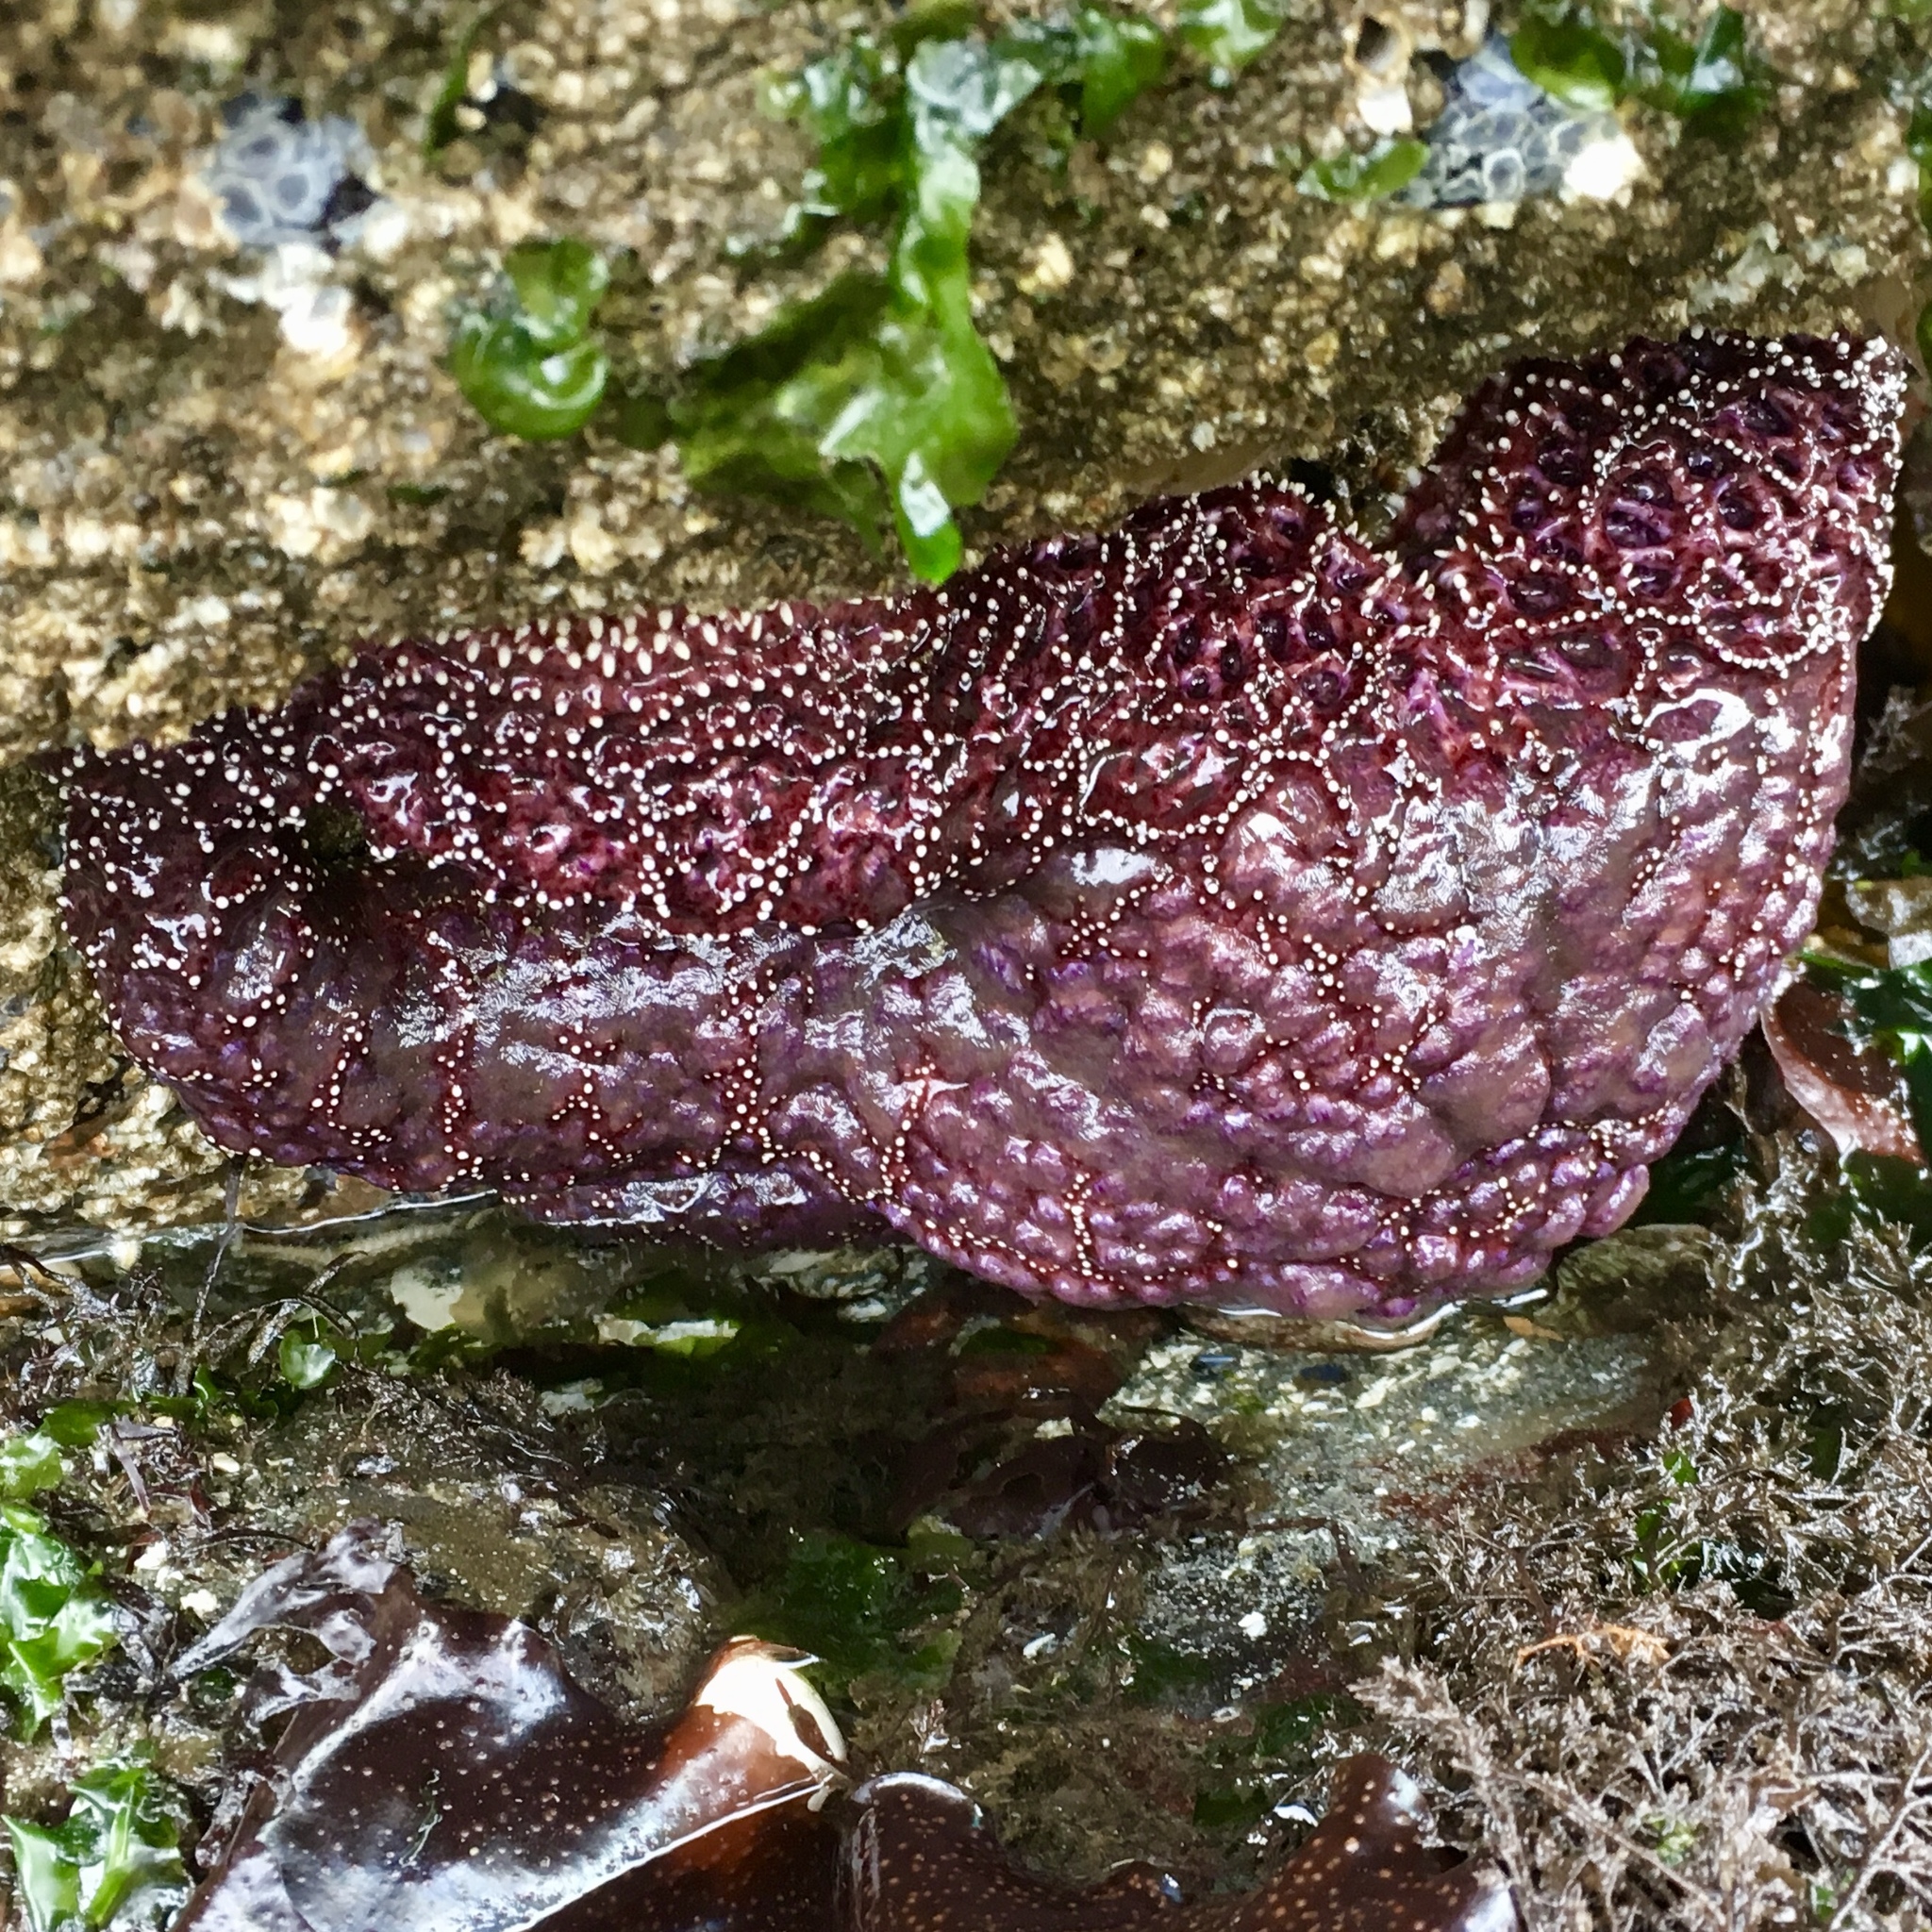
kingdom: Animalia
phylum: Echinodermata
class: Asteroidea
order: Forcipulatida
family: Asteriidae
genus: Pisaster
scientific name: Pisaster ochraceus
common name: Ochre stars
